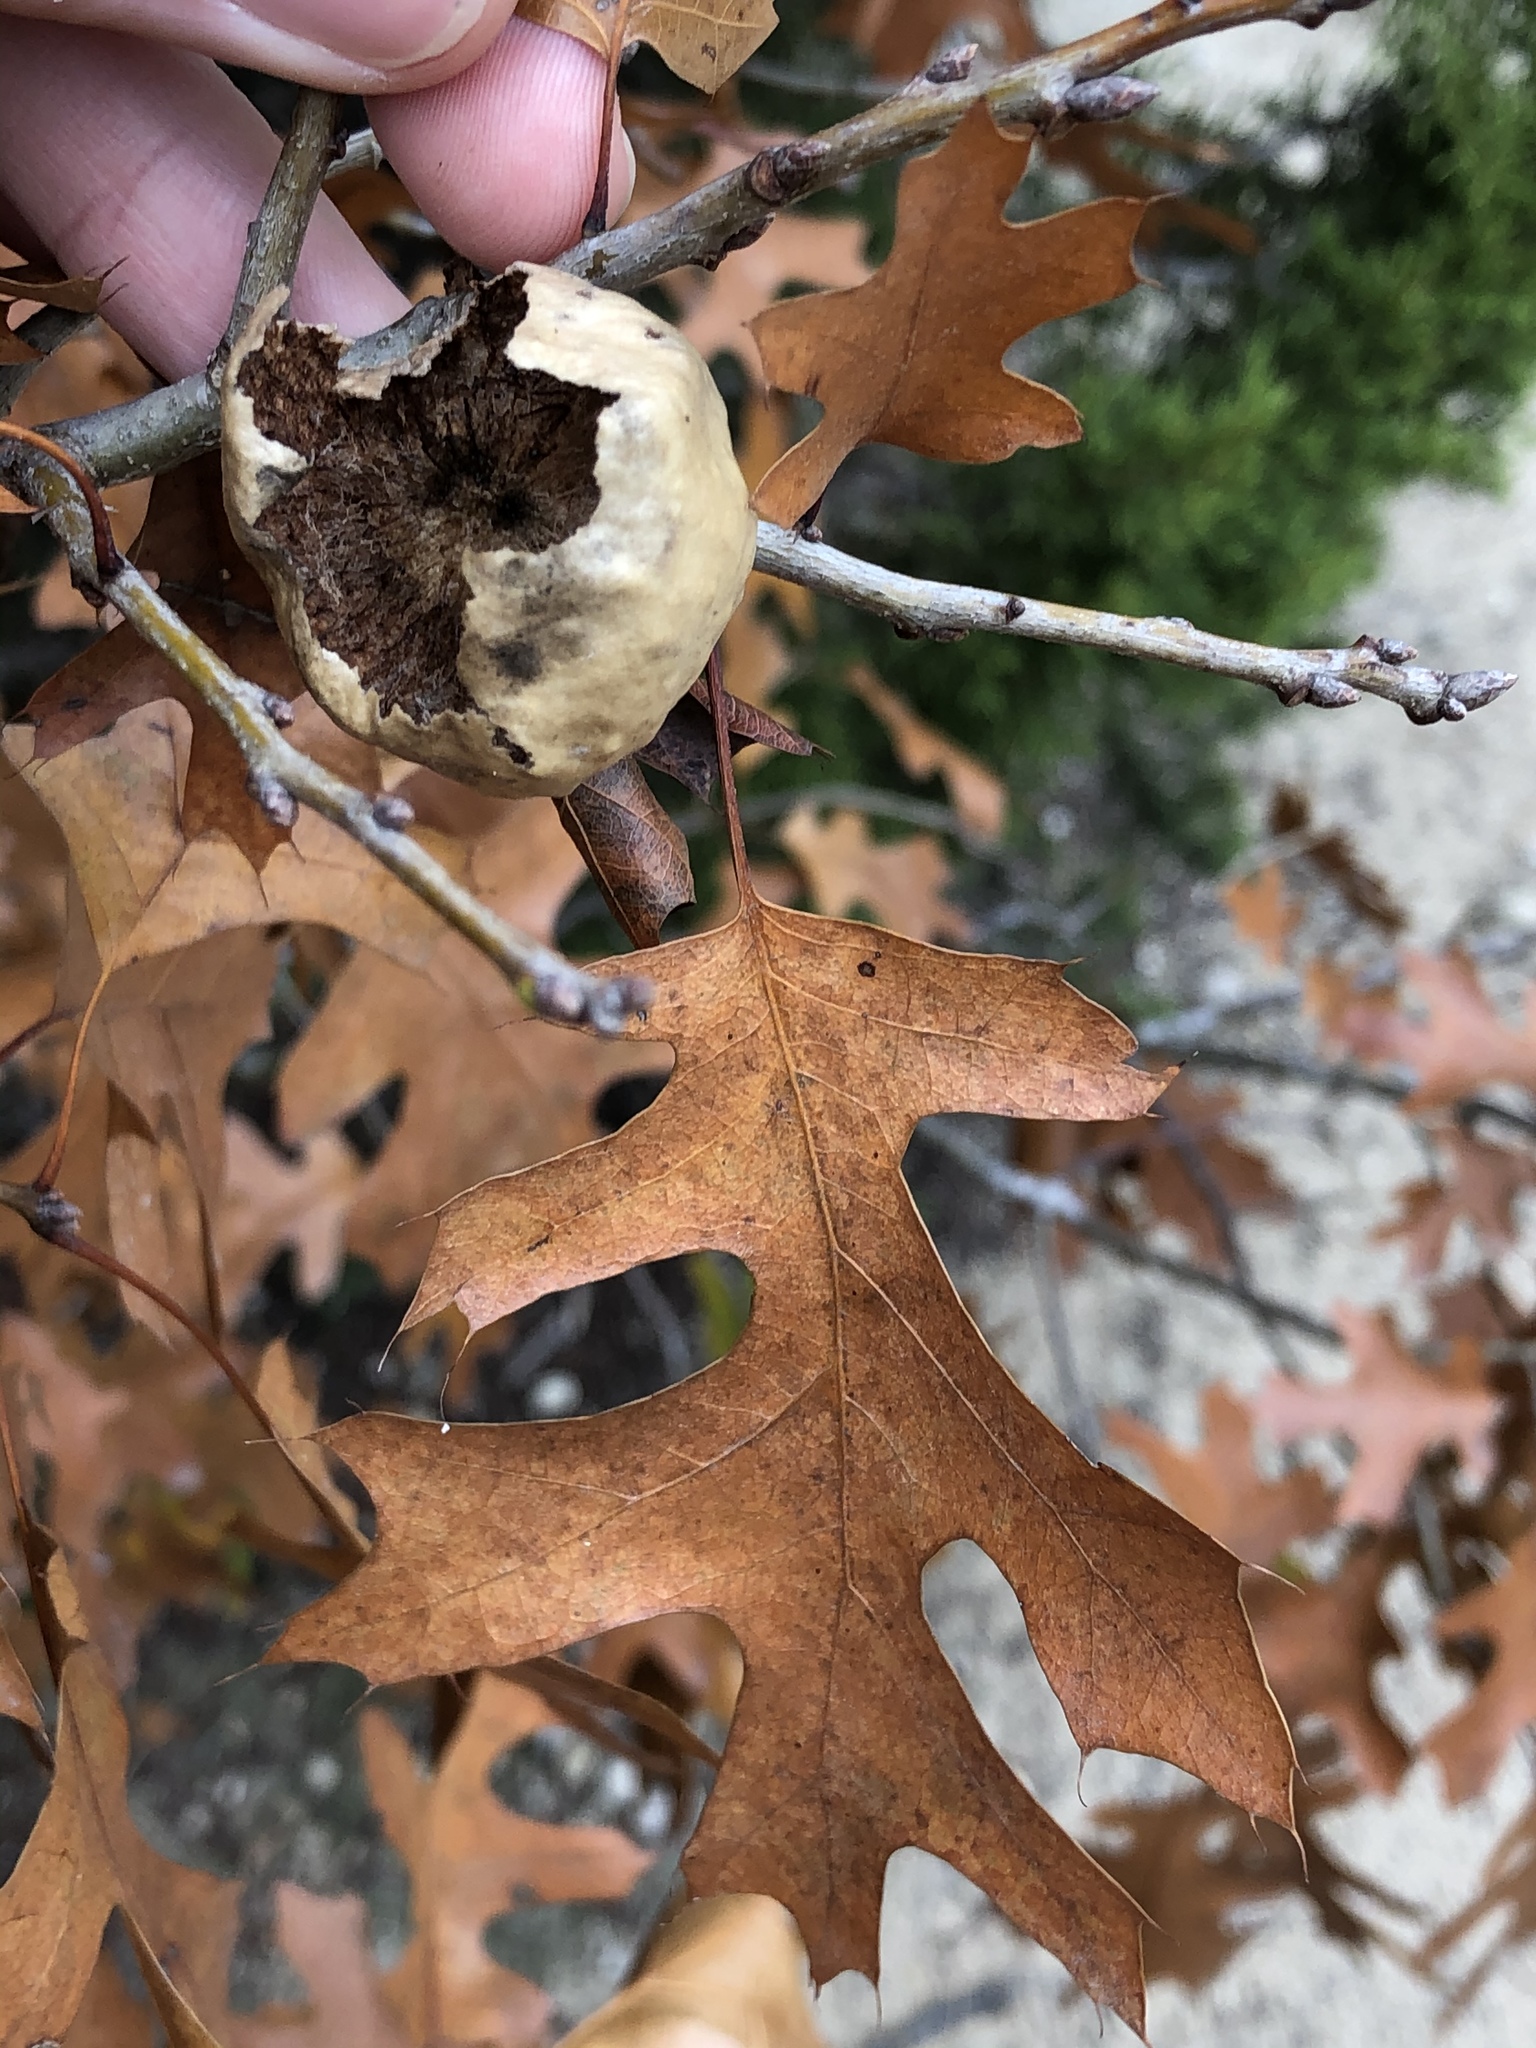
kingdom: Animalia
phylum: Arthropoda
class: Insecta
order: Hymenoptera
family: Cynipidae
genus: Amphibolips
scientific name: Amphibolips
